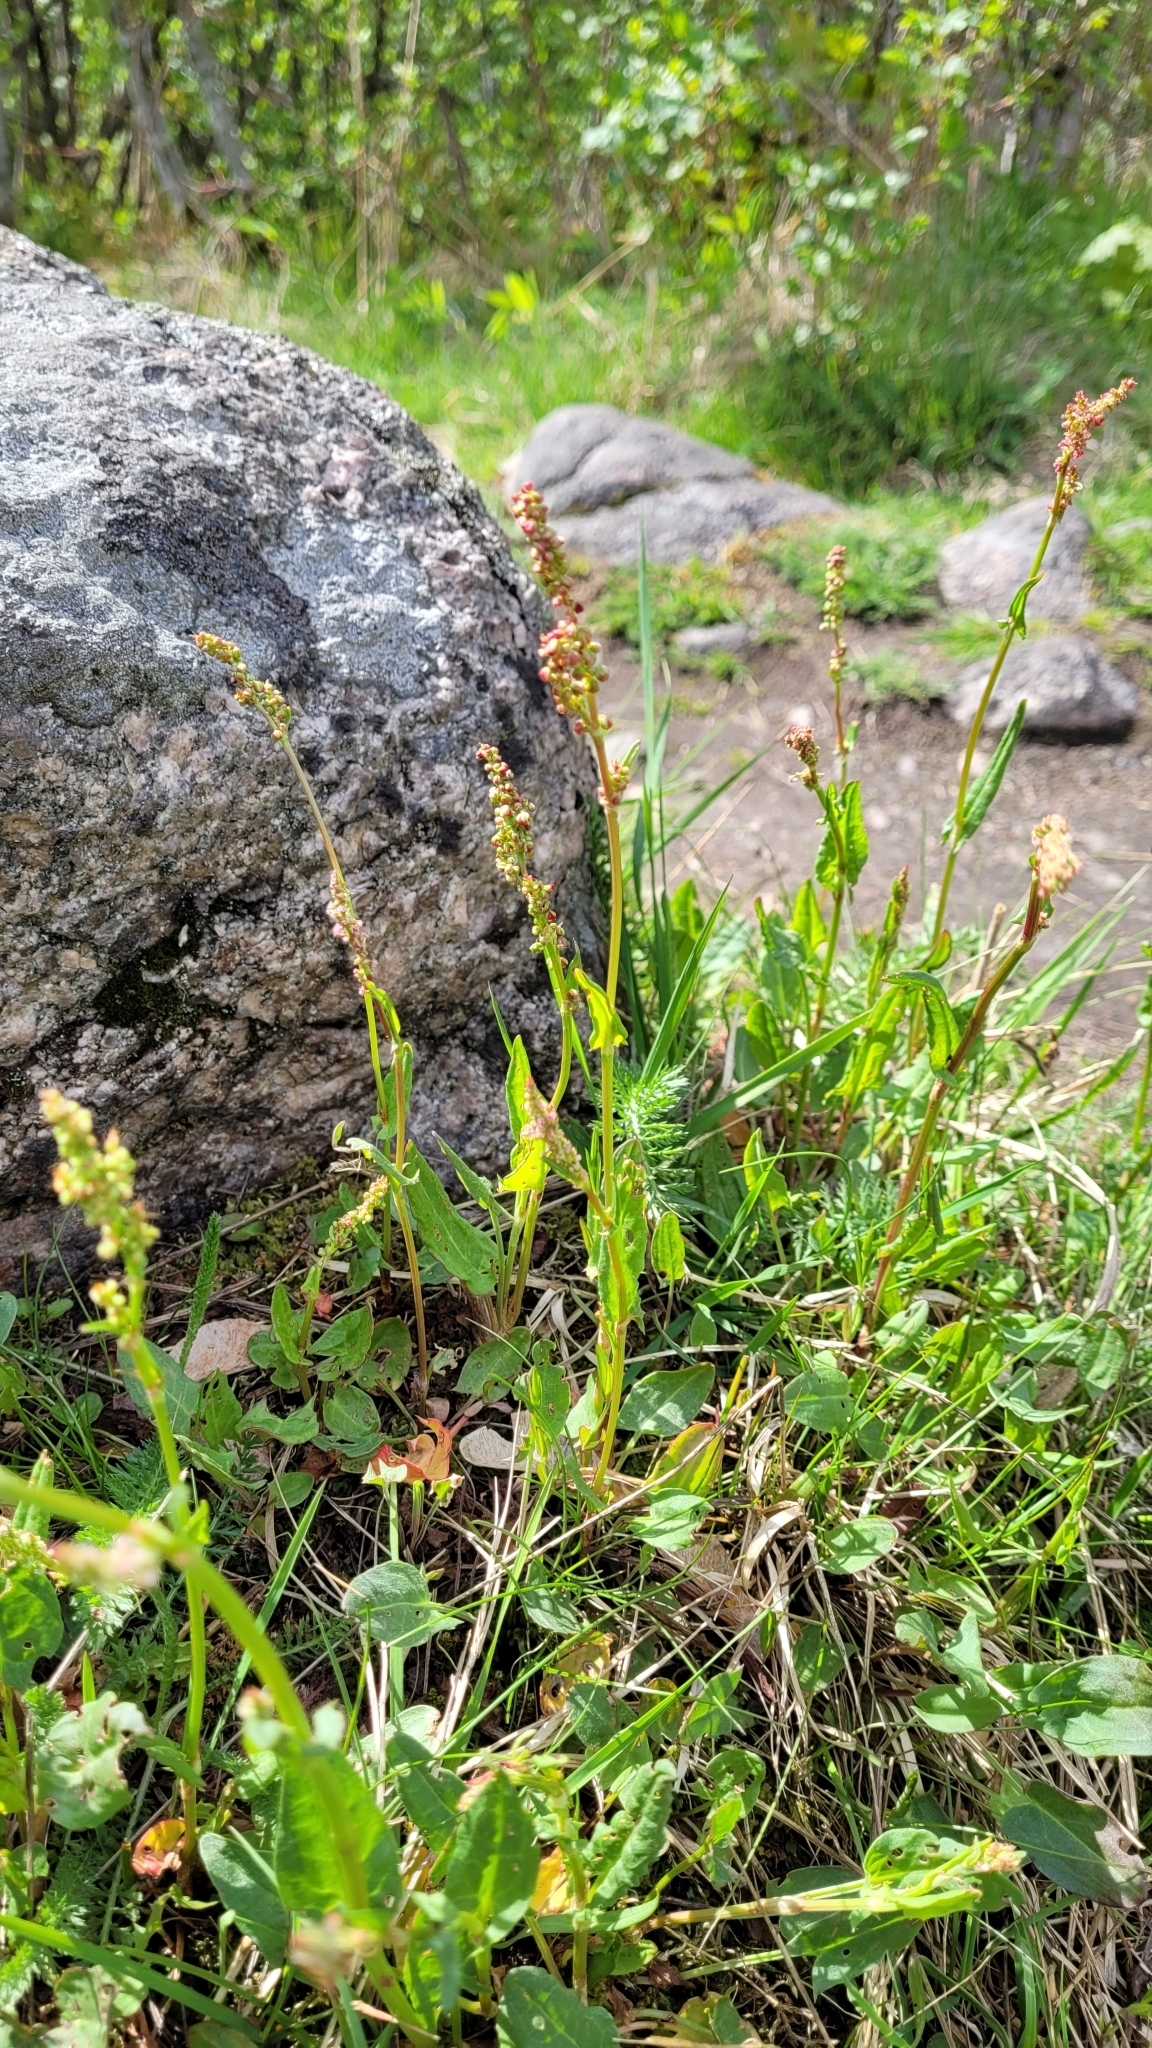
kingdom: Plantae
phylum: Tracheophyta
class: Magnoliopsida
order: Caryophyllales
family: Polygonaceae
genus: Rumex
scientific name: Rumex acetosa
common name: Garden sorrel
